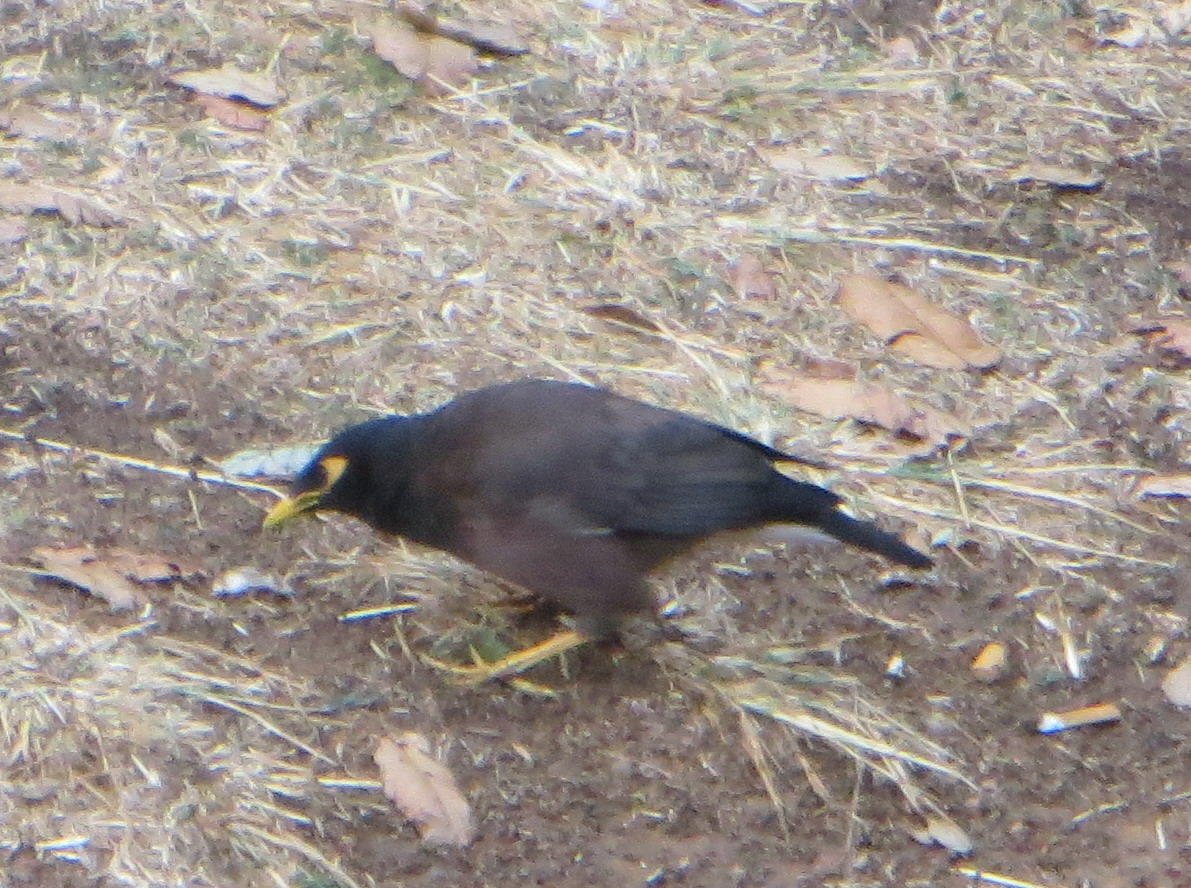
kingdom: Animalia
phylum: Chordata
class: Aves
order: Passeriformes
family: Sturnidae
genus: Acridotheres
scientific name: Acridotheres tristis
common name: Common myna
